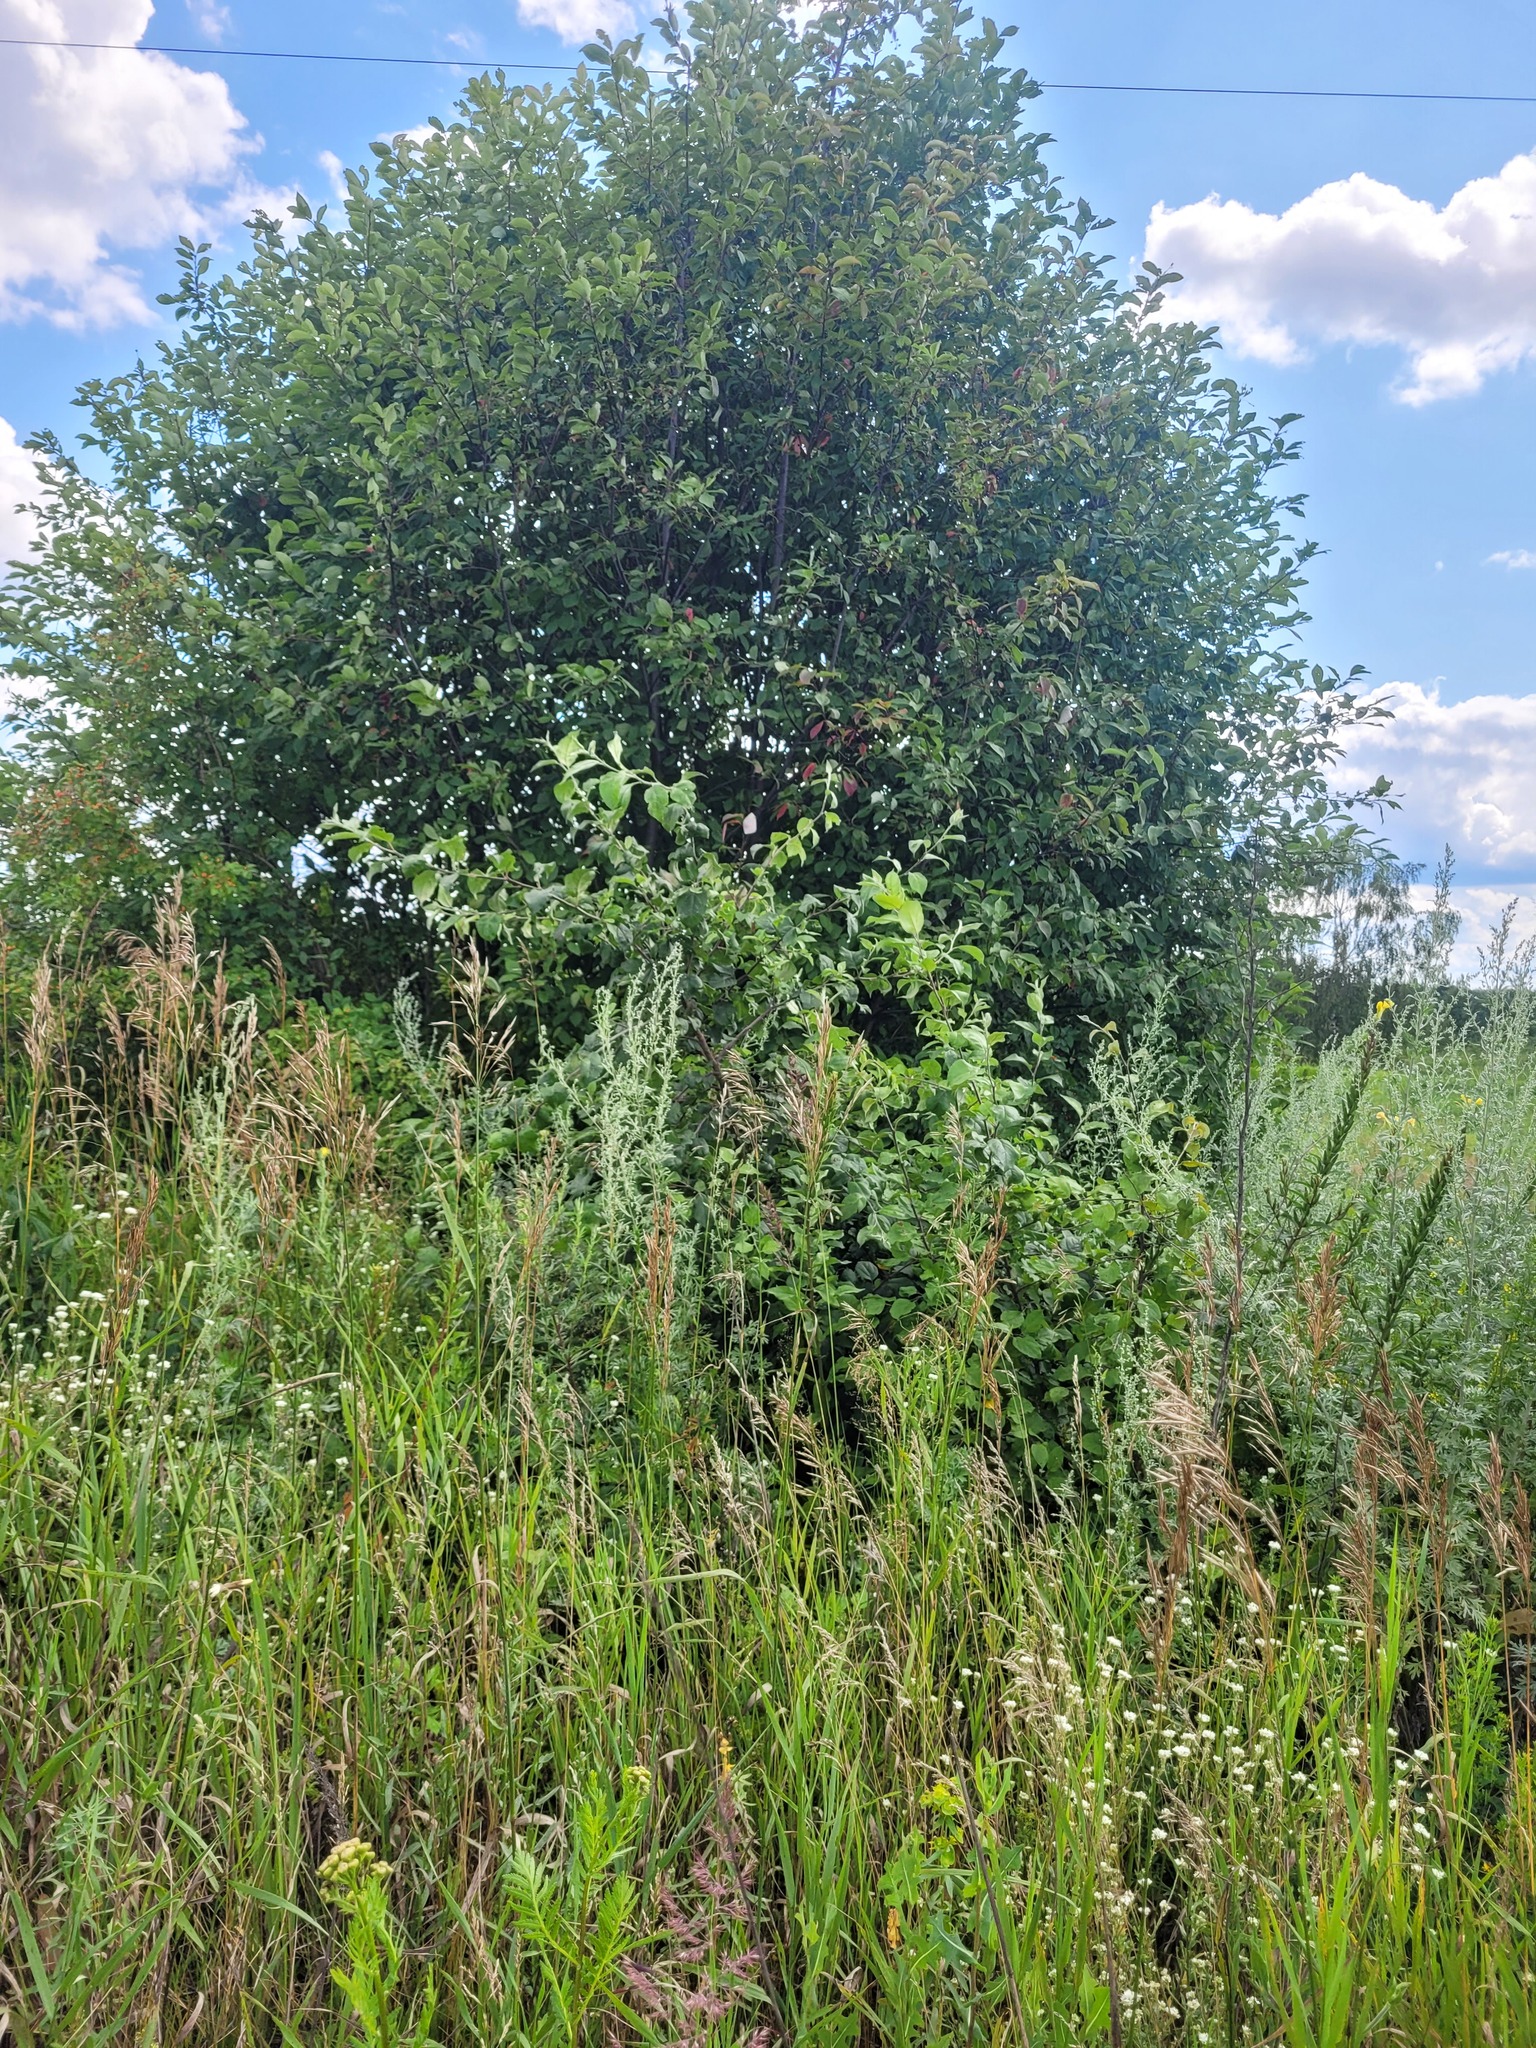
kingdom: Plantae
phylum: Tracheophyta
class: Magnoliopsida
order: Rosales
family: Rosaceae
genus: Malus
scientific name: Malus domestica
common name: Apple
